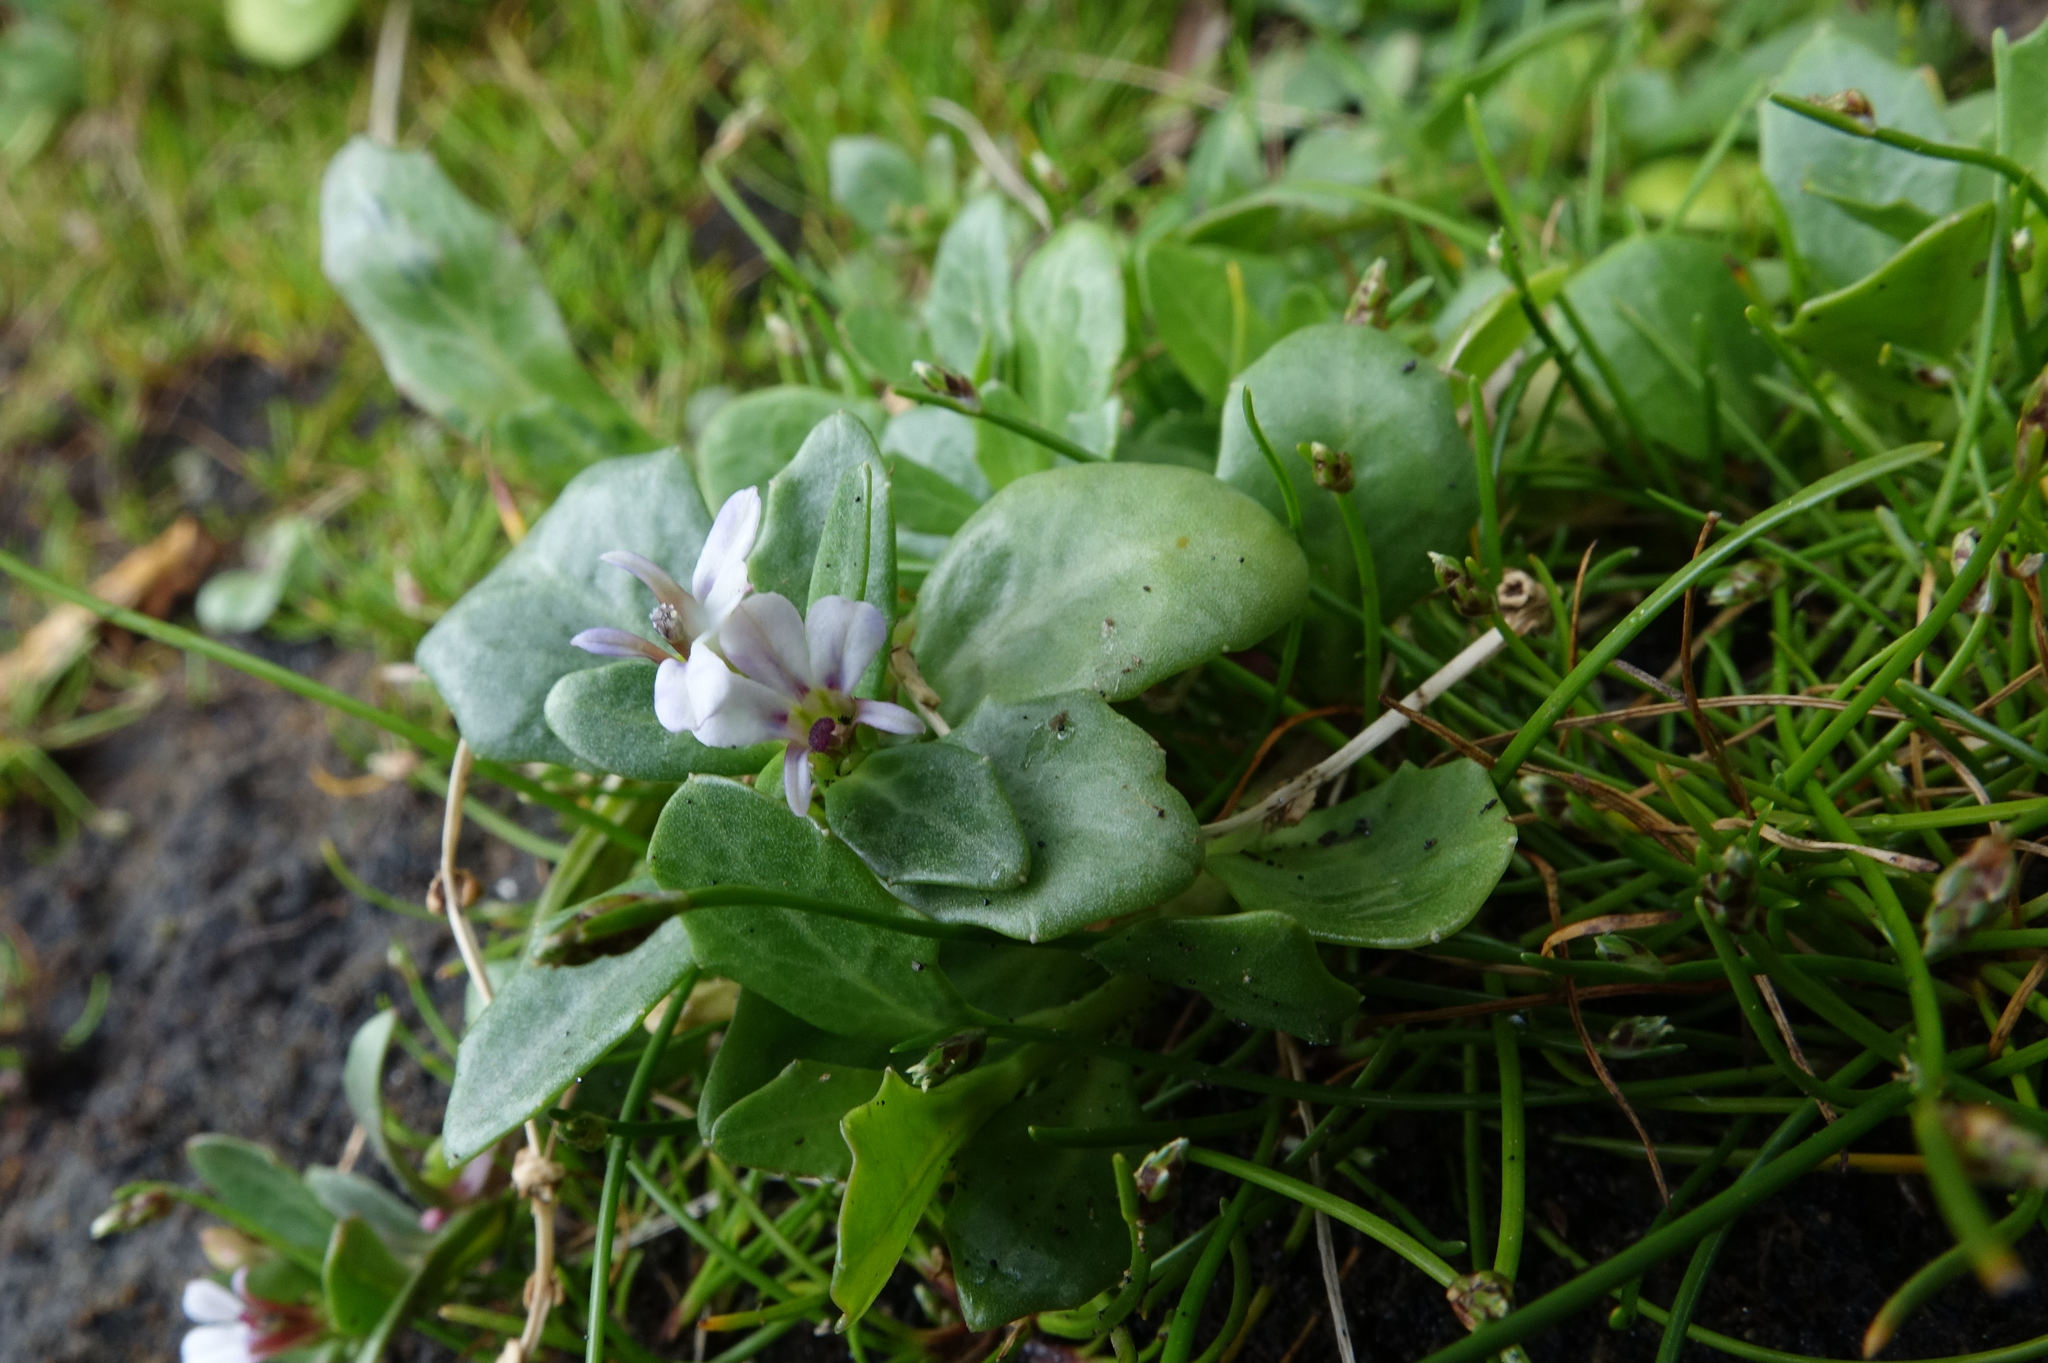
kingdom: Plantae
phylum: Tracheophyta
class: Magnoliopsida
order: Asterales
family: Campanulaceae
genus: Lobelia
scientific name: Lobelia anceps
